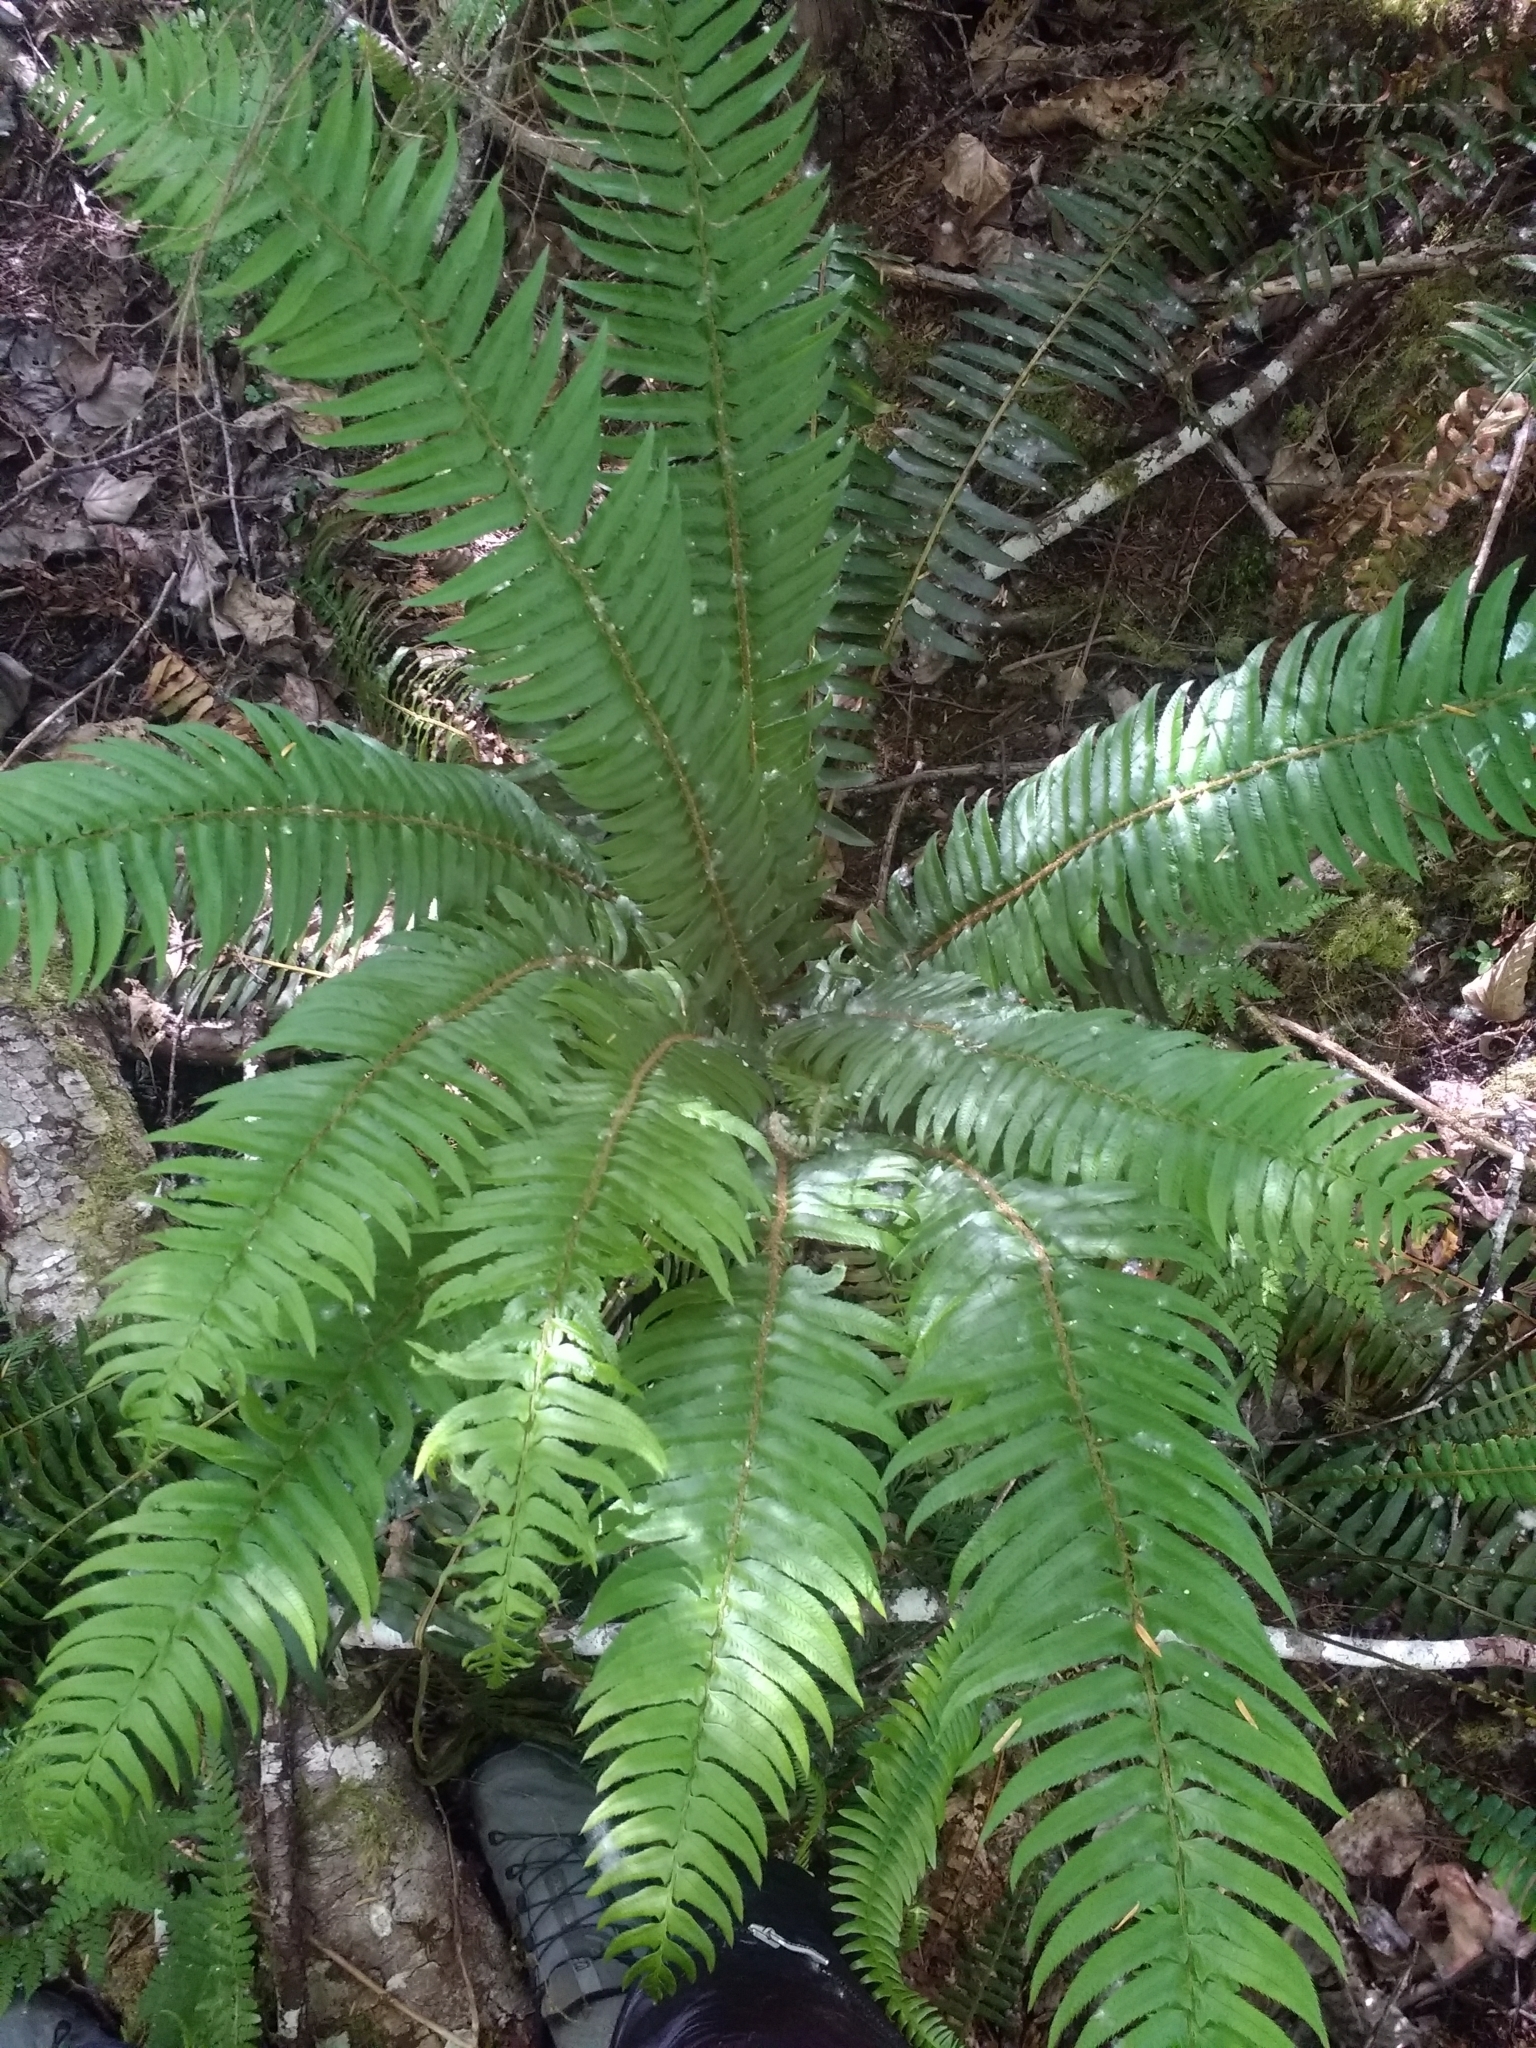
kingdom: Plantae
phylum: Tracheophyta
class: Polypodiopsida
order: Polypodiales
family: Dryopteridaceae
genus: Polystichum
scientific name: Polystichum munitum
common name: Western sword-fern
